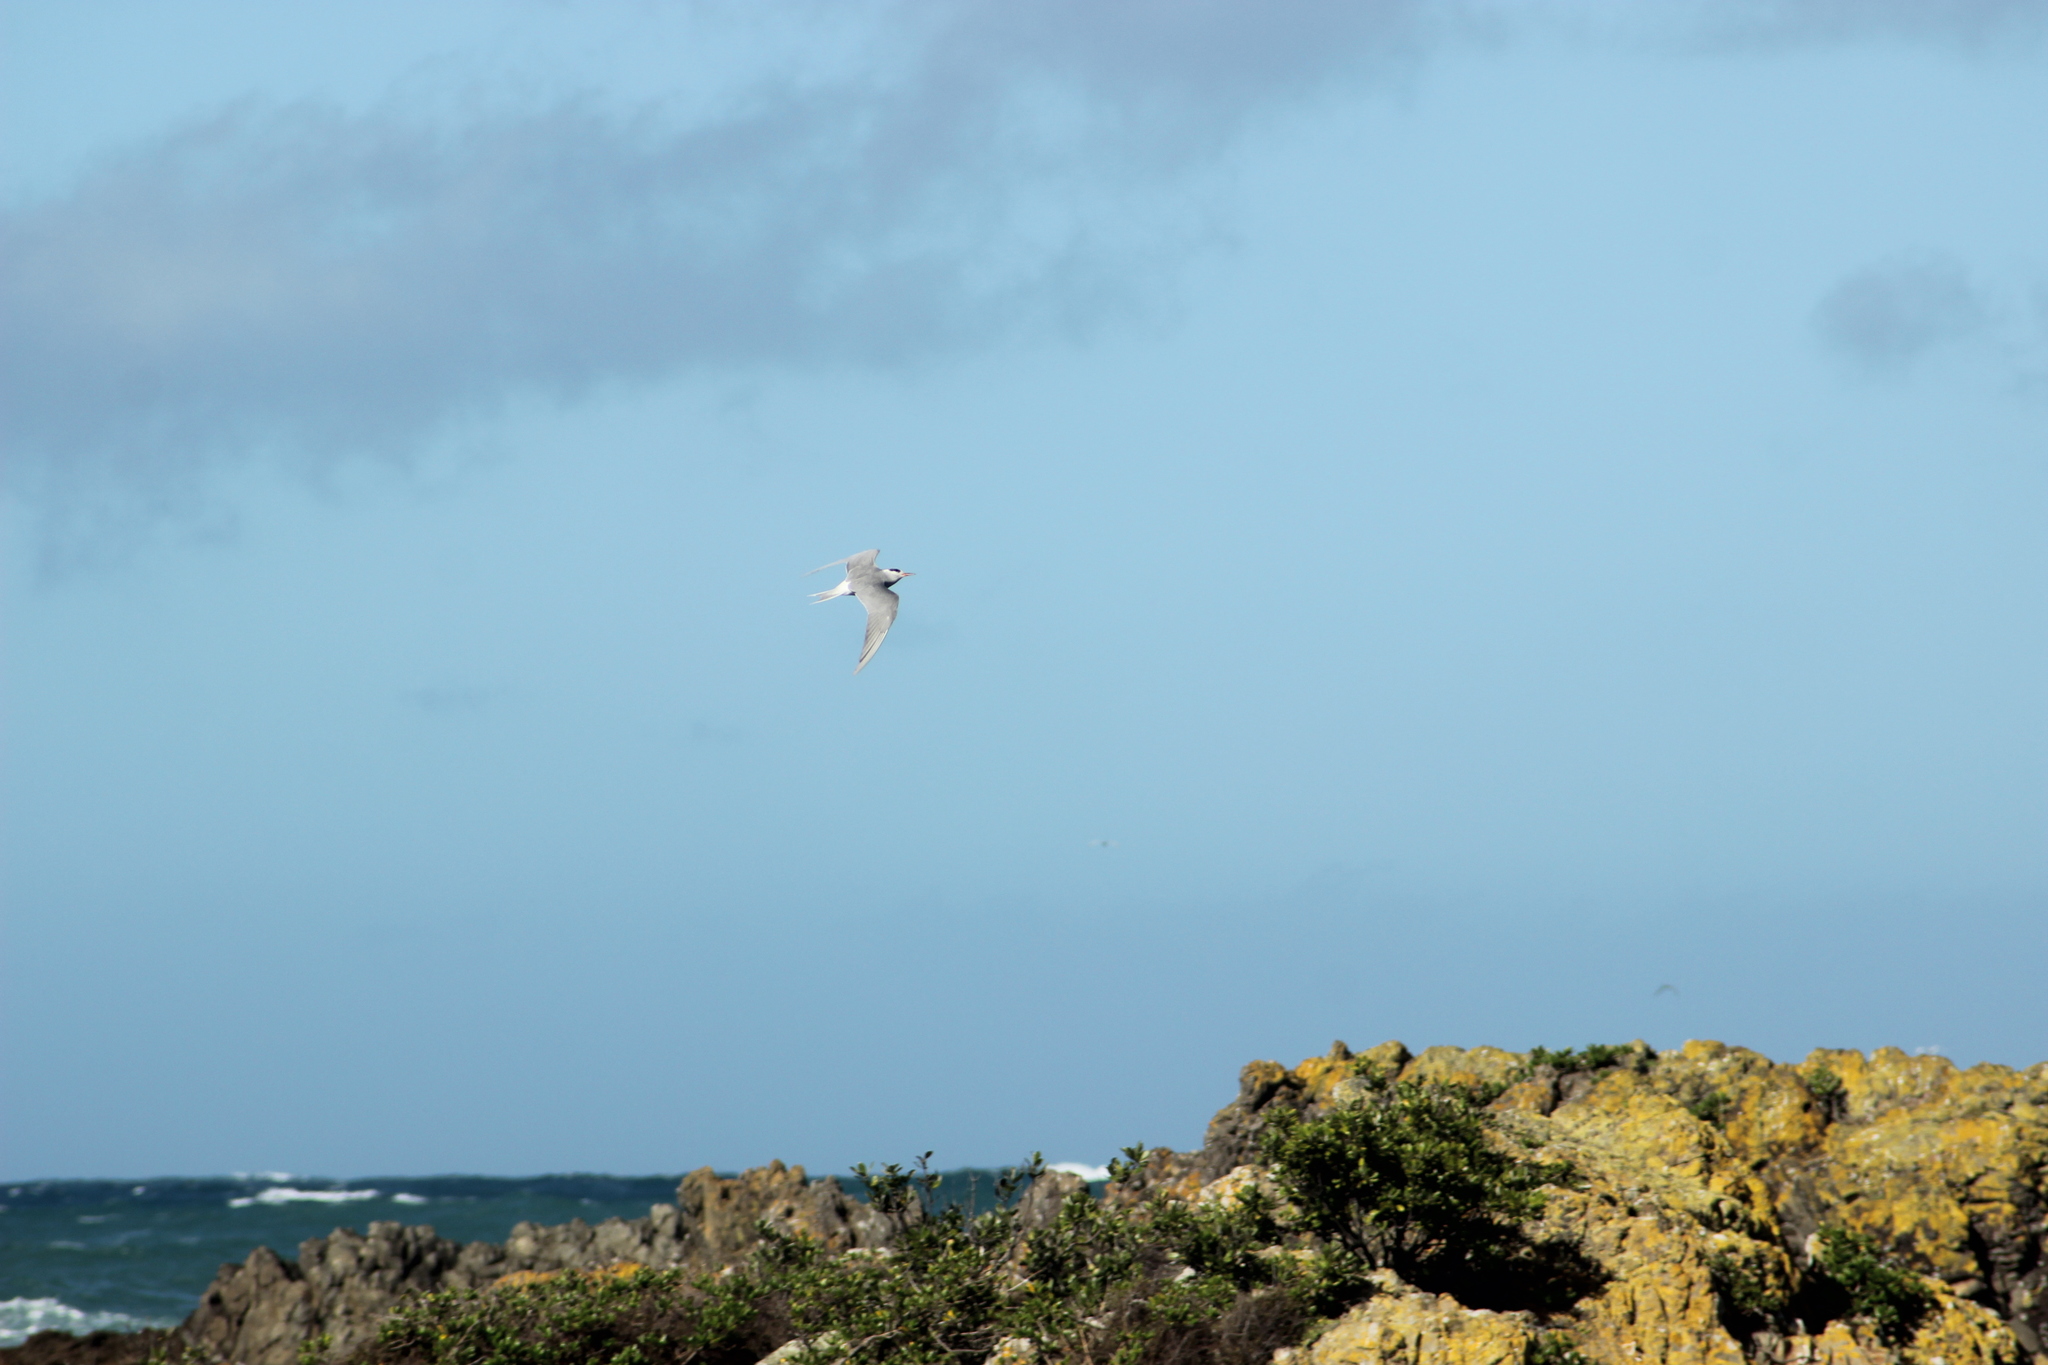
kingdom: Animalia
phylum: Chordata
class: Aves
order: Charadriiformes
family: Laridae
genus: Chlidonias
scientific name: Chlidonias albostriatus
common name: Black-fronted tern
